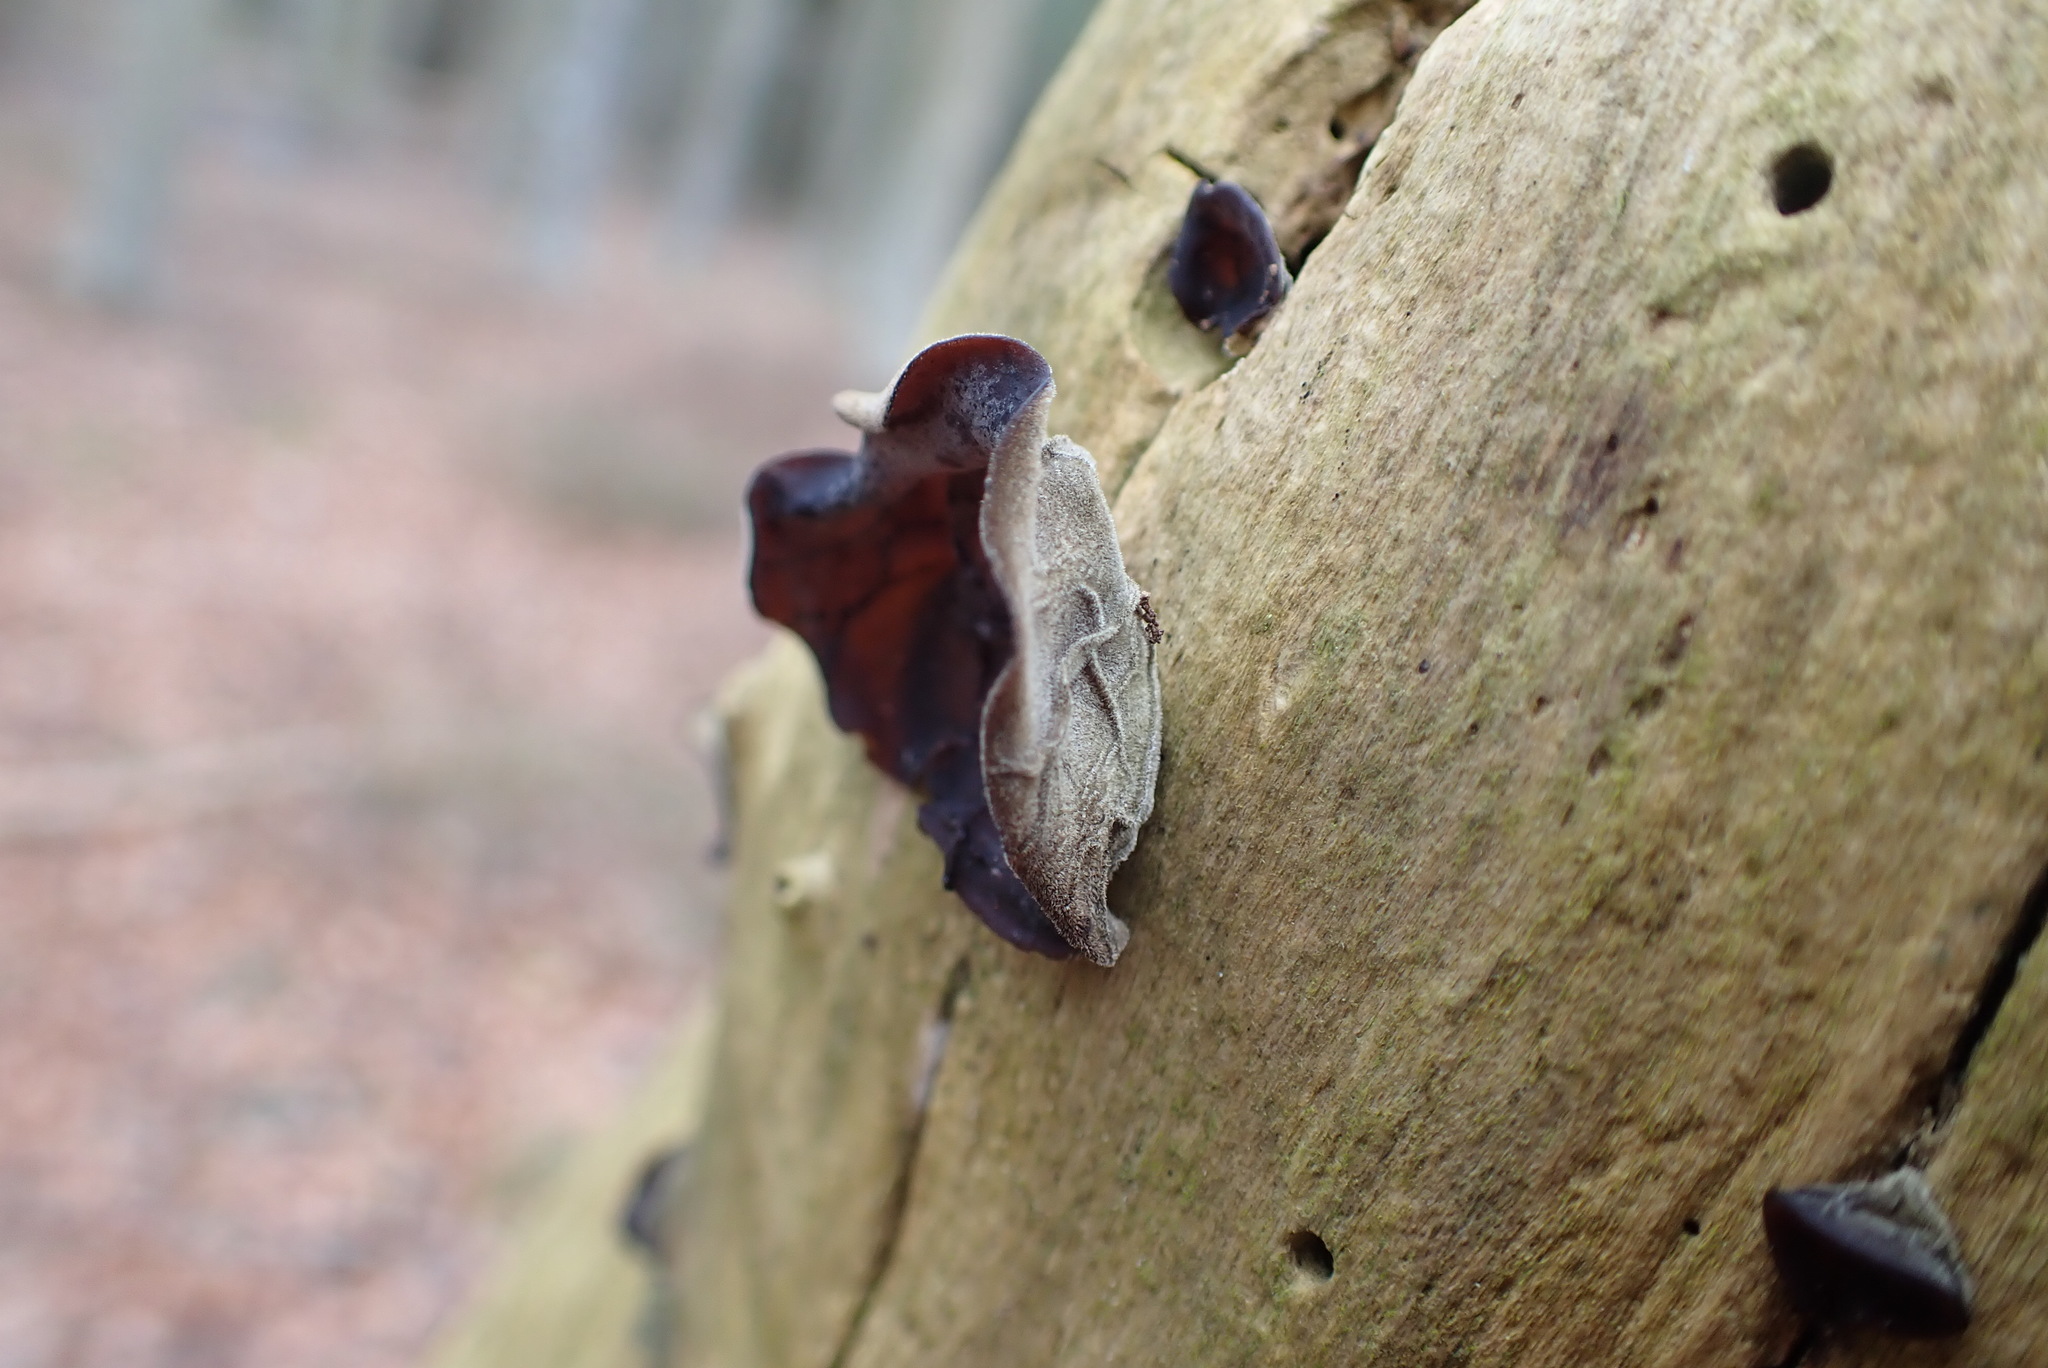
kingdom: Fungi
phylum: Basidiomycota
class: Agaricomycetes
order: Auriculariales
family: Auriculariaceae
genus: Auricularia
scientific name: Auricularia auricula-judae
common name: Jelly ear
